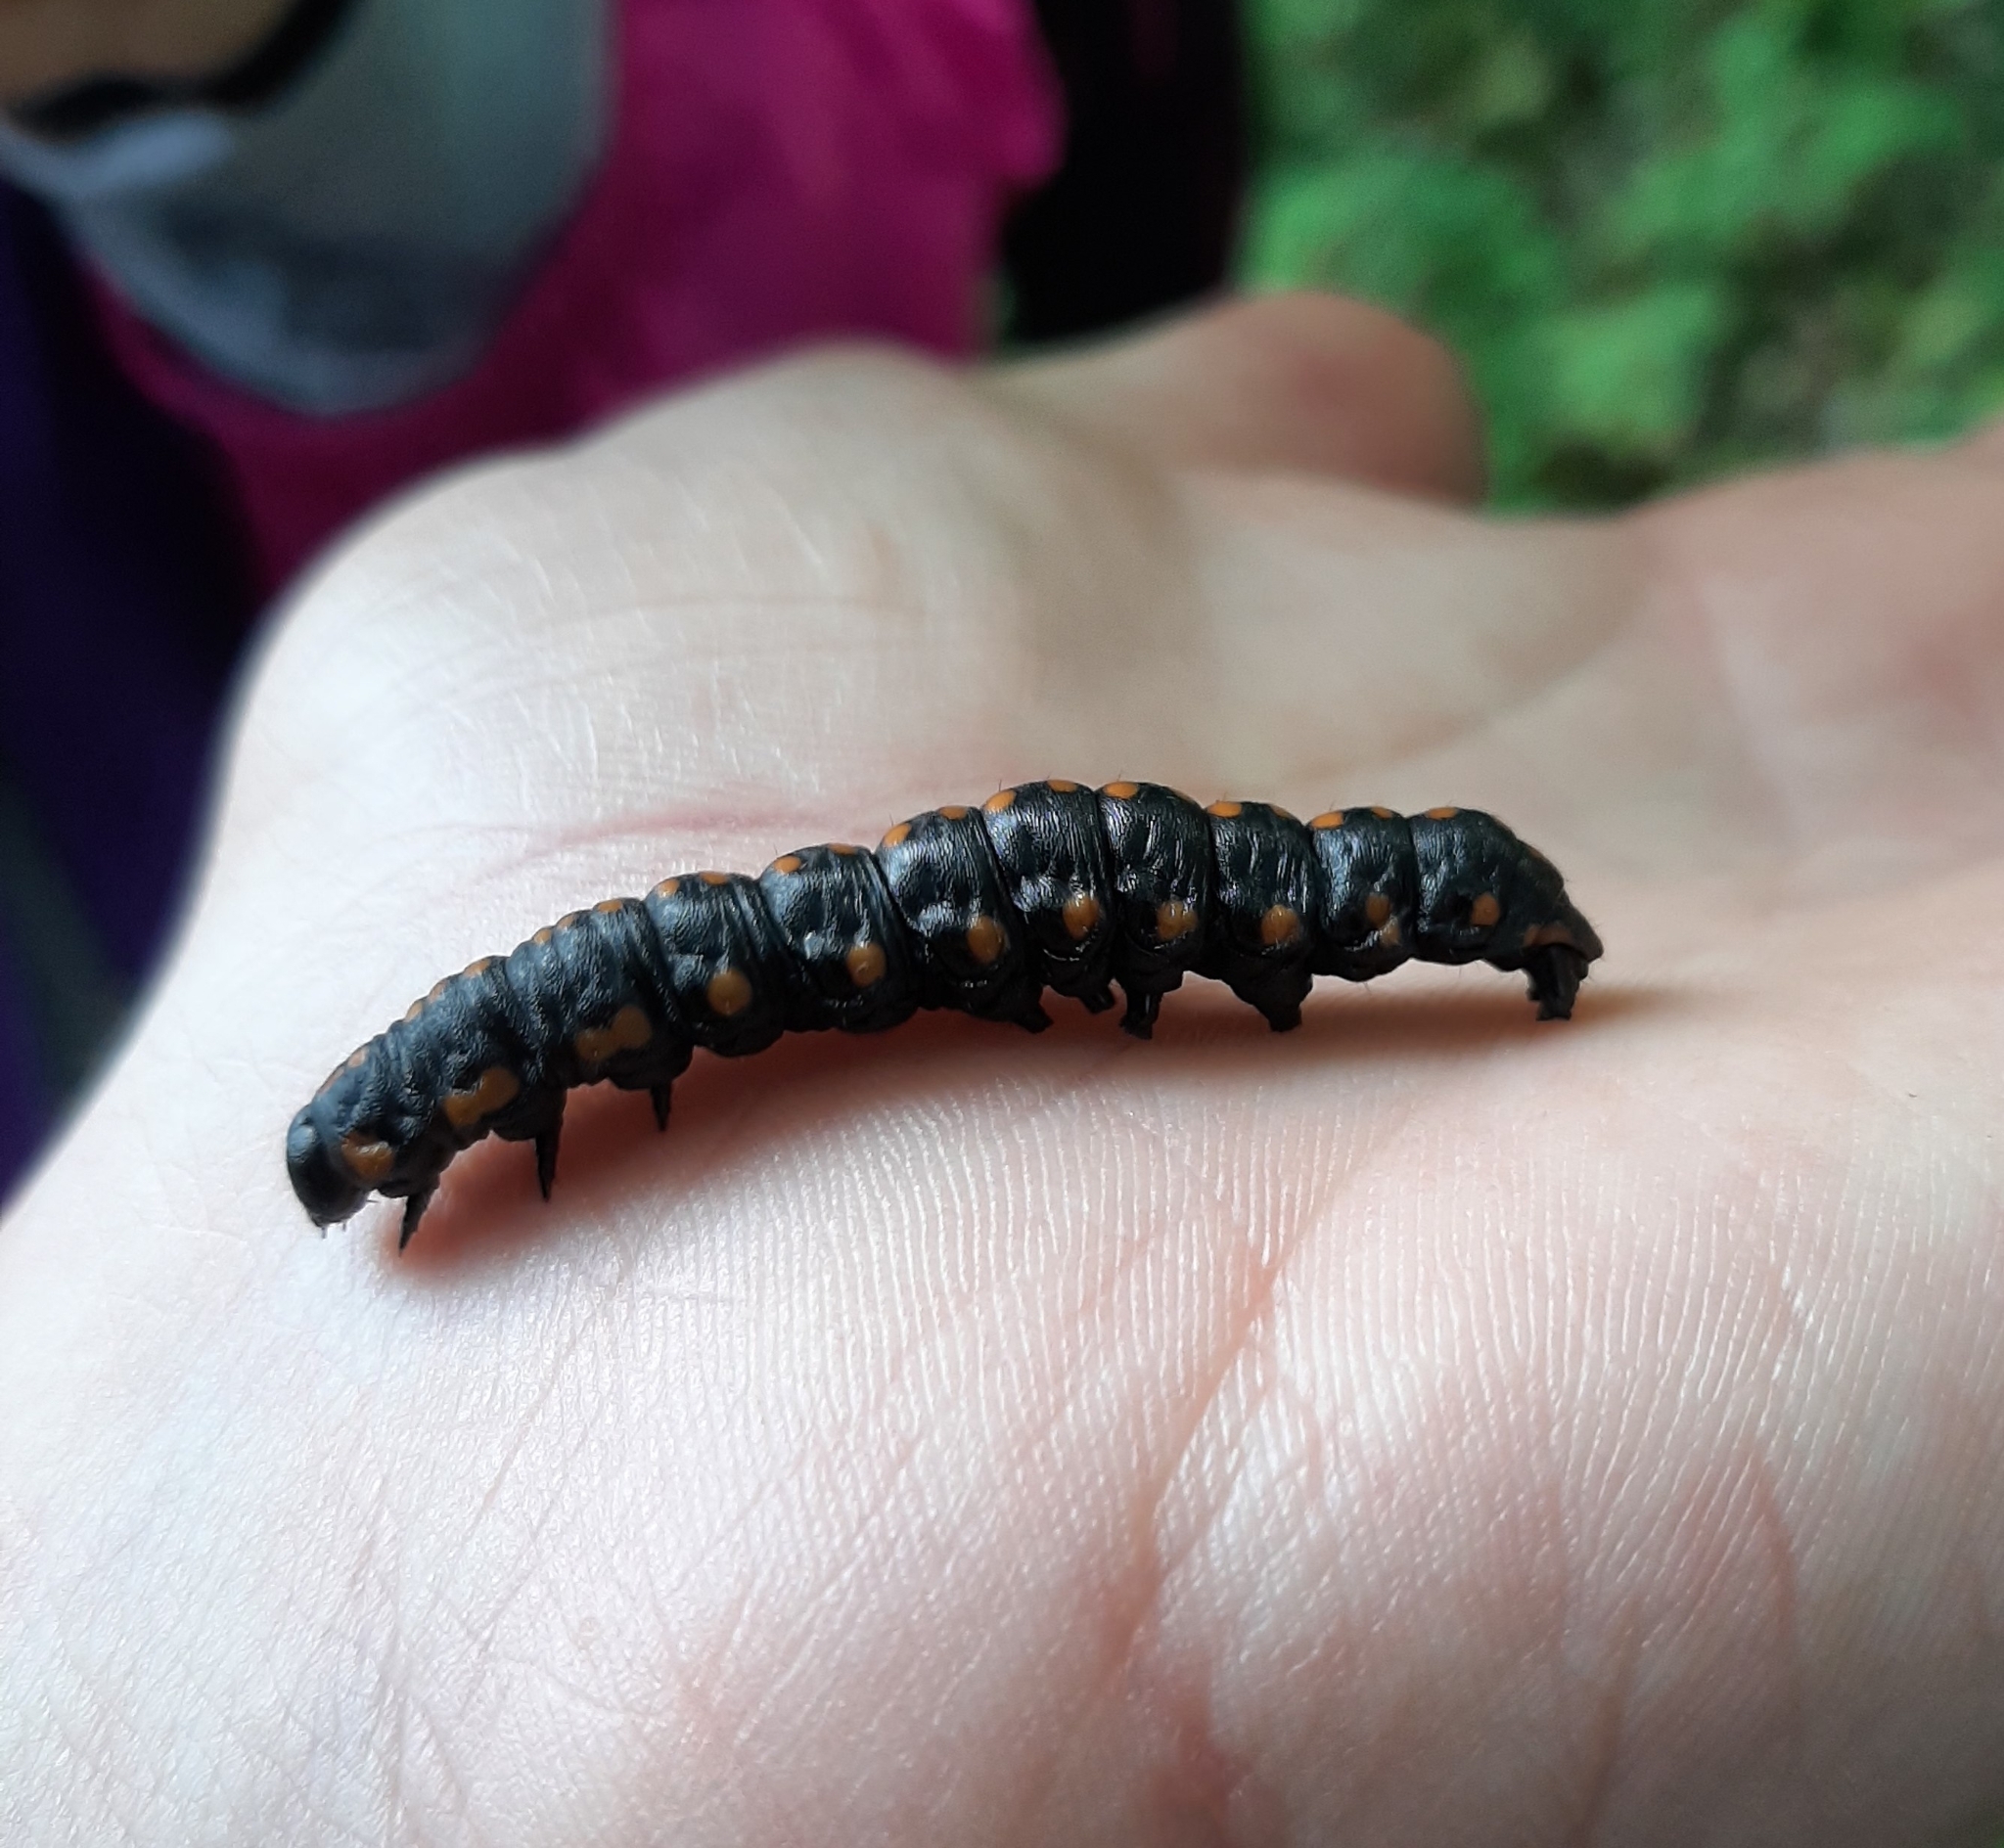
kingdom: Animalia
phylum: Arthropoda
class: Insecta
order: Lepidoptera
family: Noctuidae
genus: Cucullia
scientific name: Cucullia lucifuga
